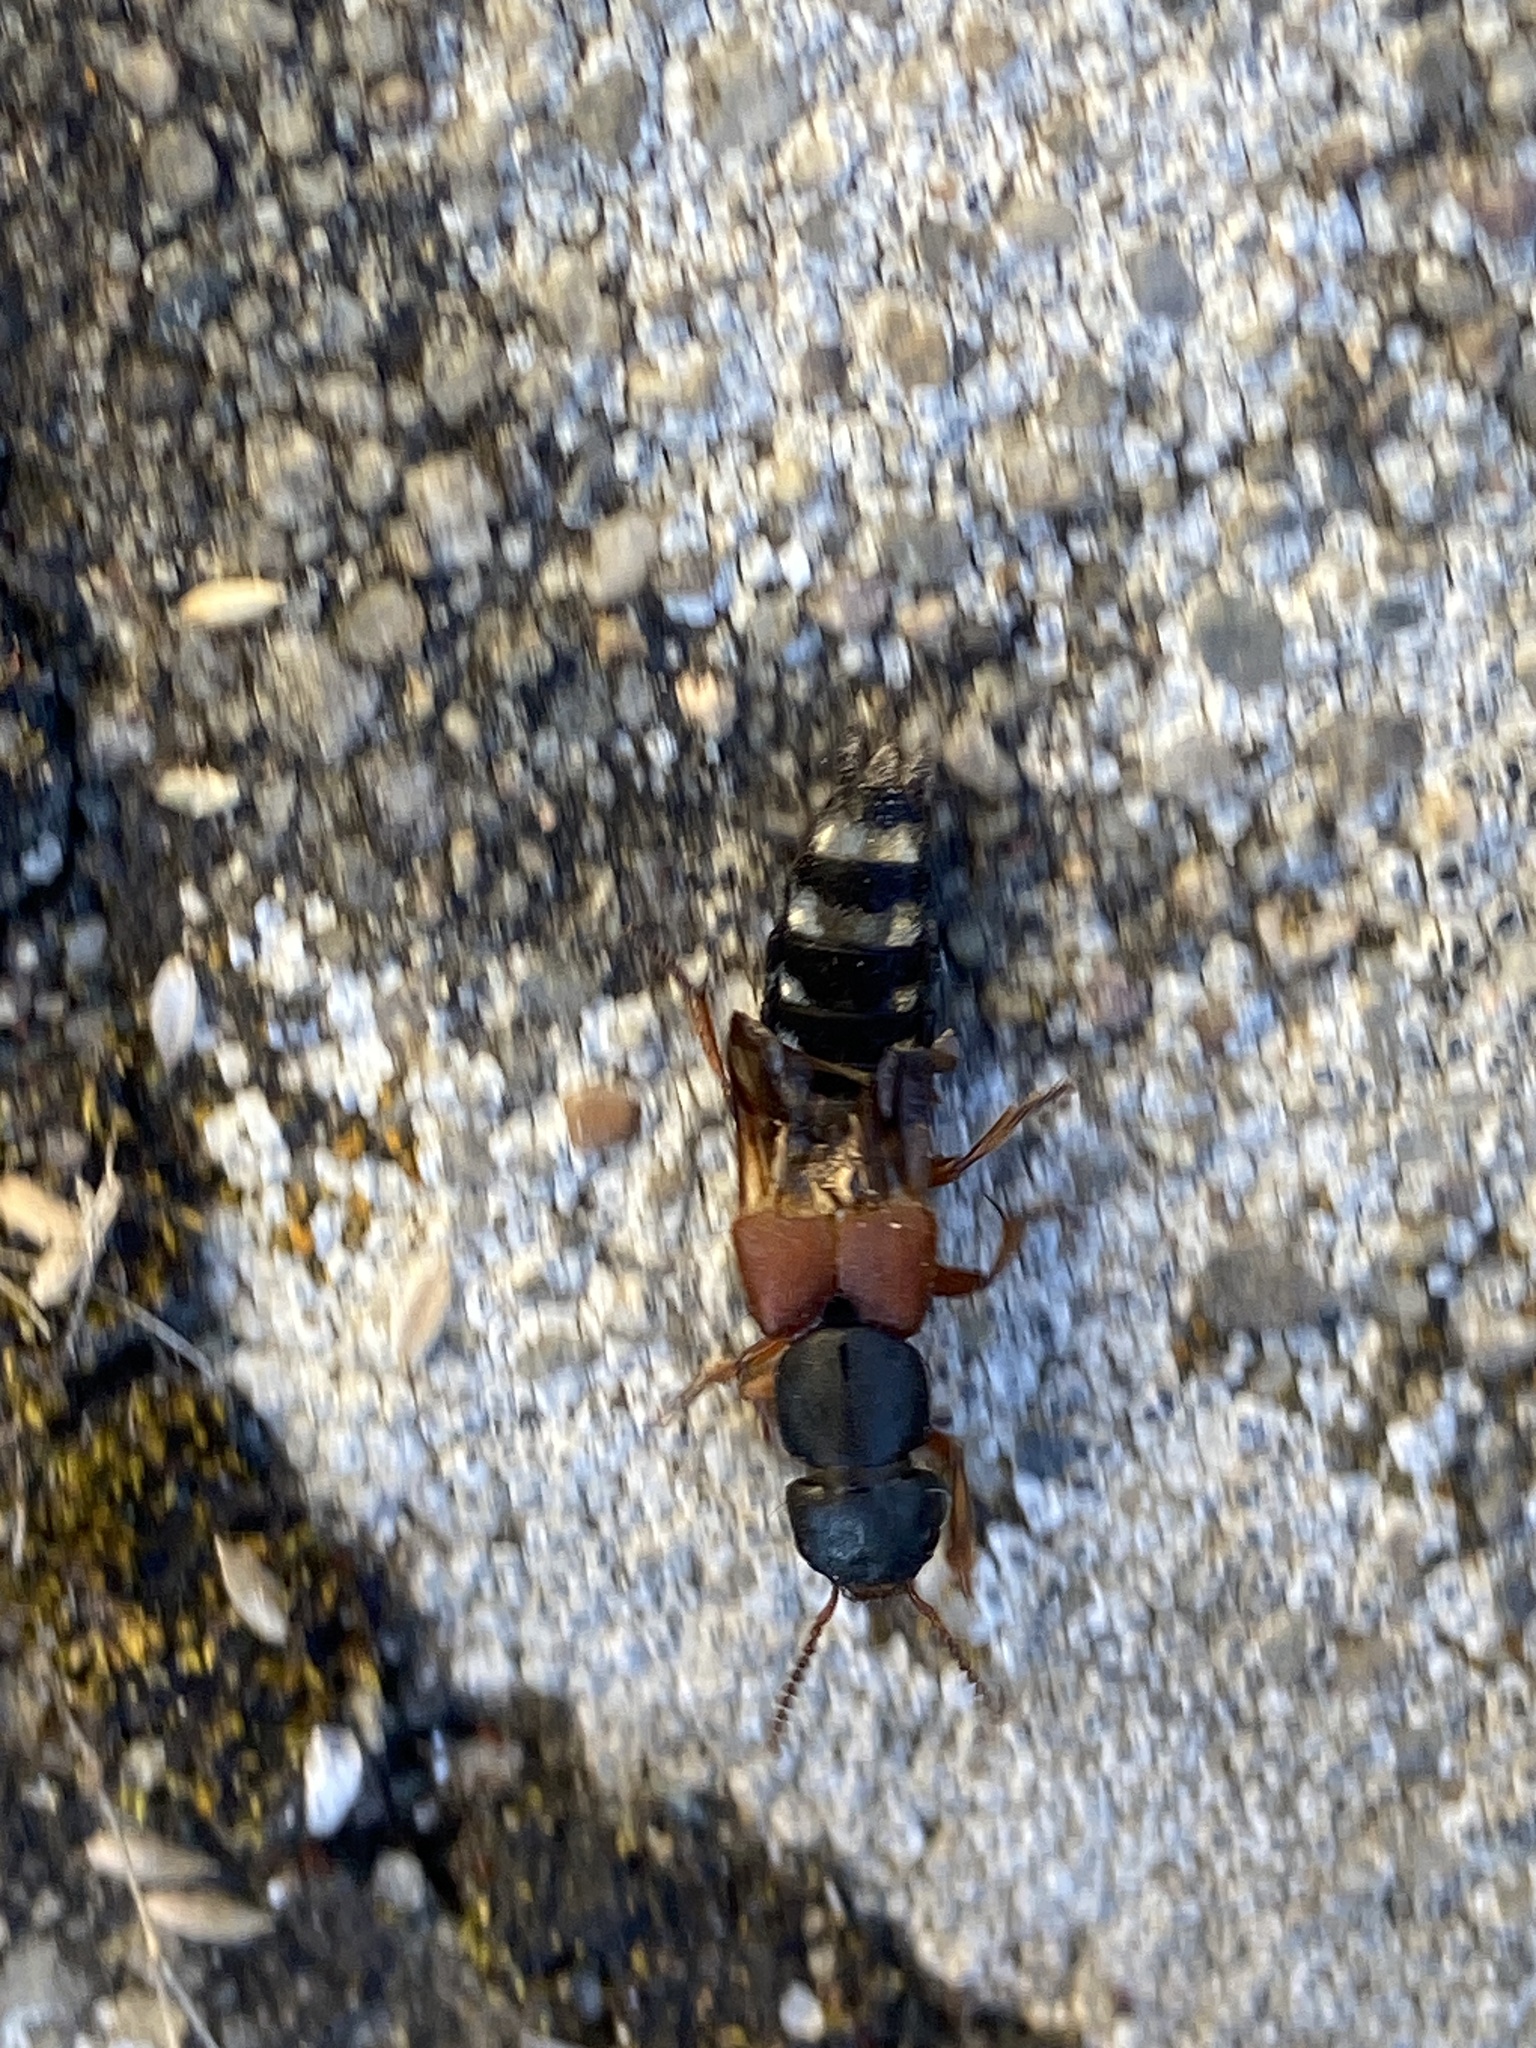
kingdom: Animalia
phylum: Arthropoda
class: Insecta
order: Coleoptera
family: Staphylinidae
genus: Platydracus
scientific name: Platydracus stercorarius
